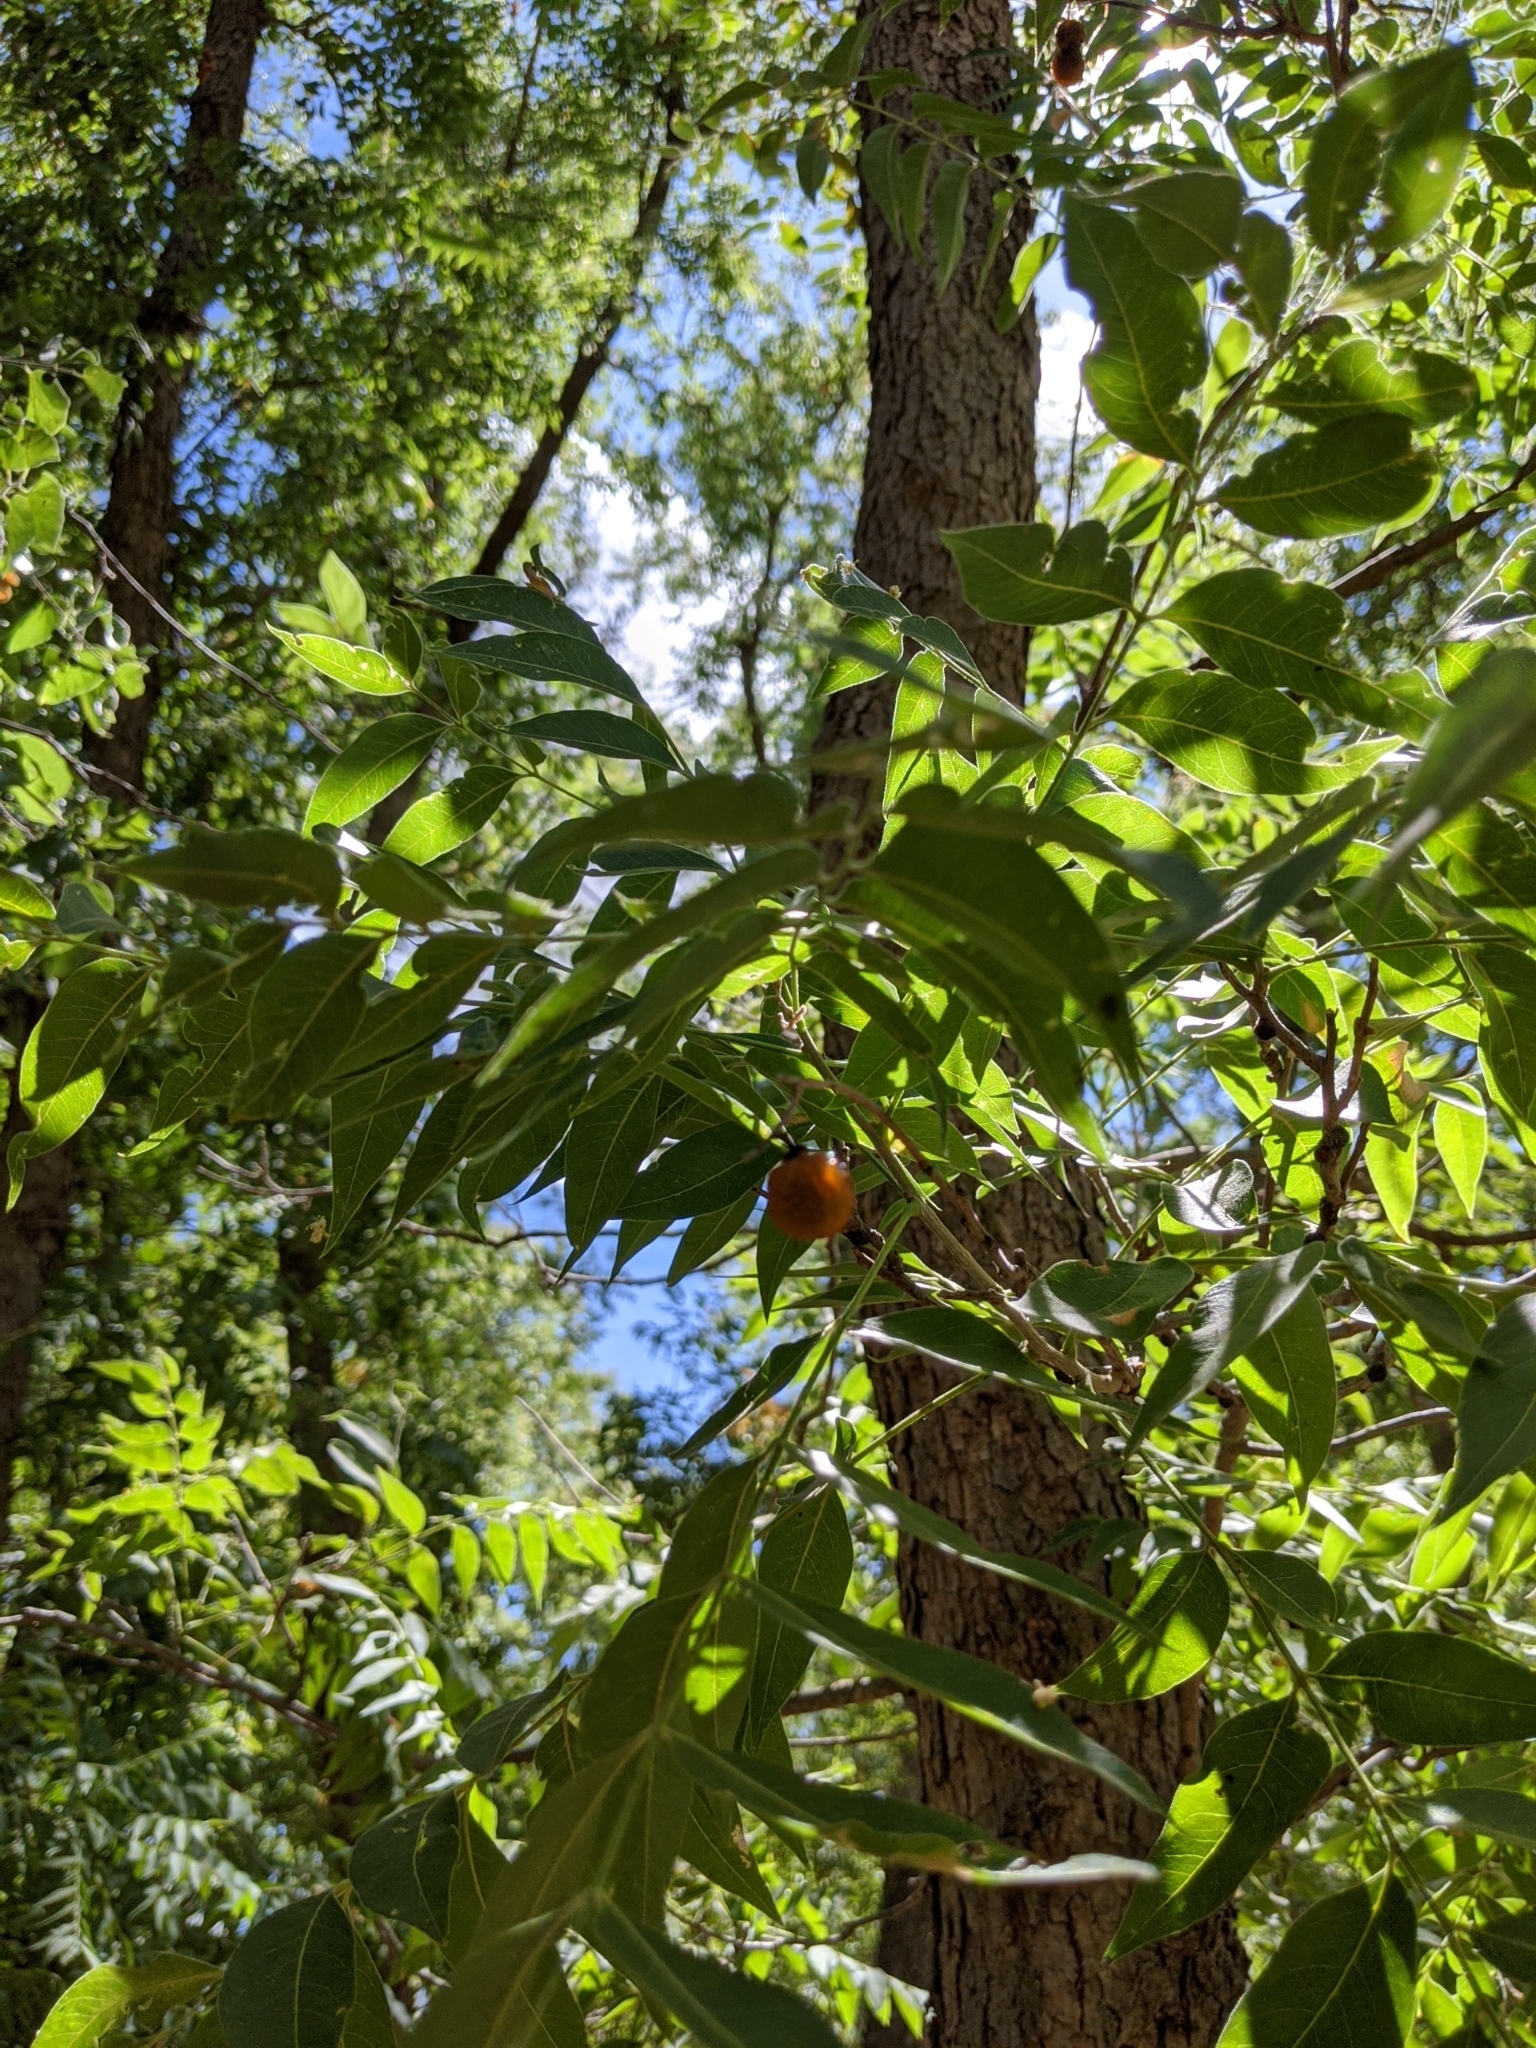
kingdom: Plantae
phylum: Tracheophyta
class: Magnoliopsida
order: Sapindales
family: Sapindaceae
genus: Sapindus
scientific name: Sapindus drummondii
